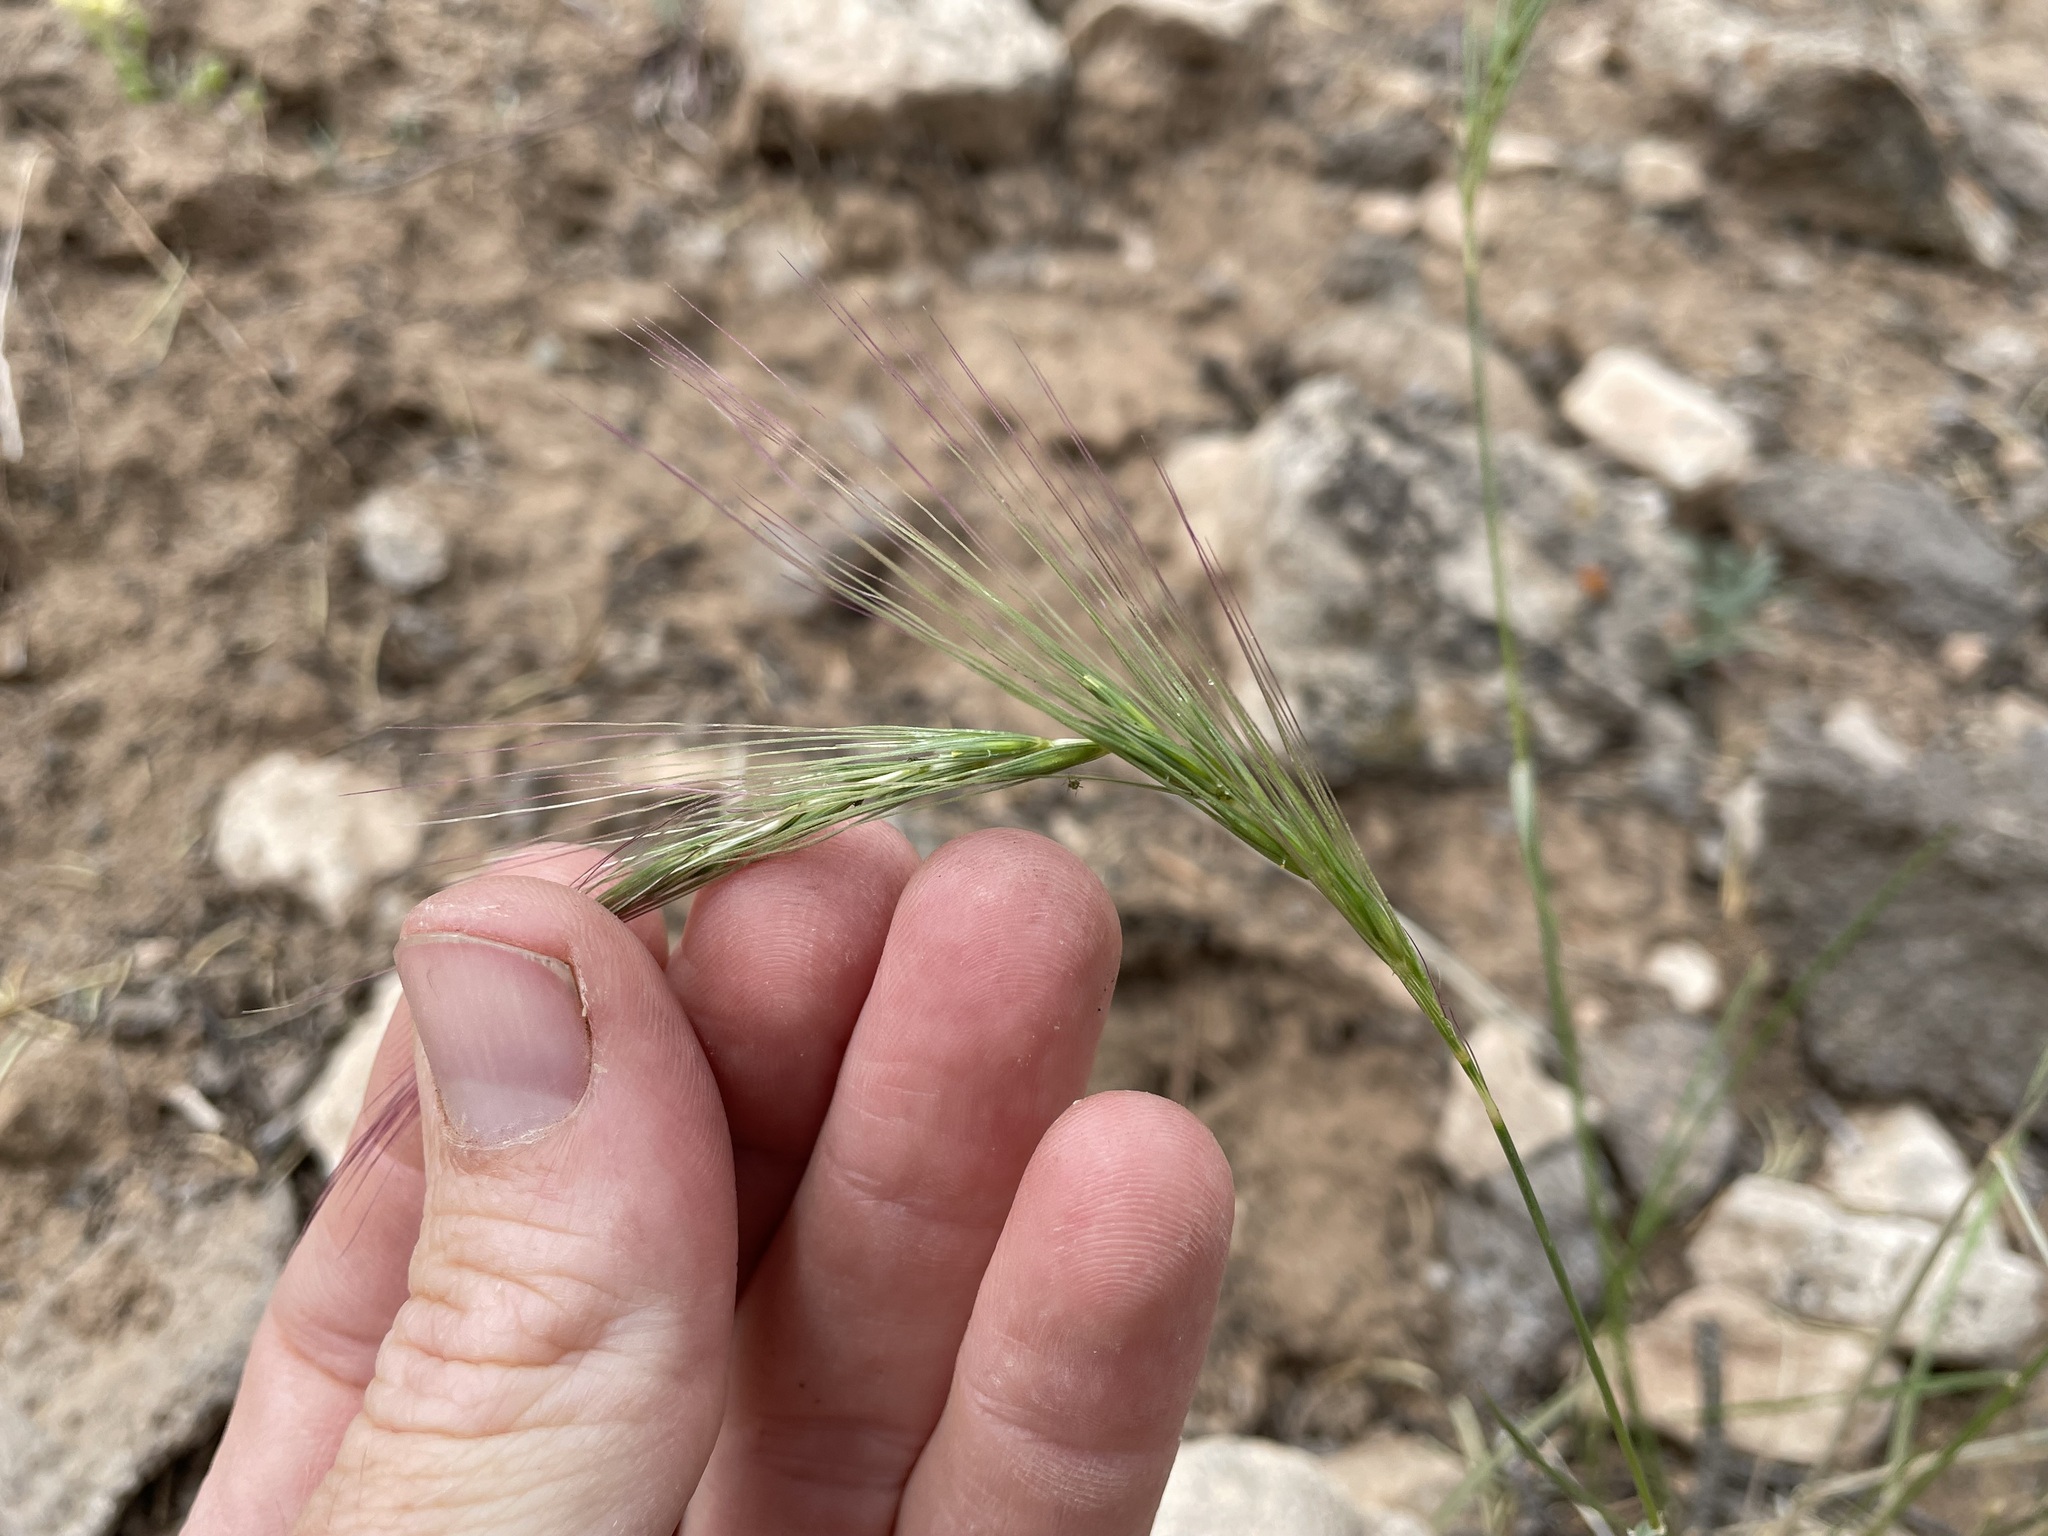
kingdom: Plantae
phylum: Tracheophyta
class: Liliopsida
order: Poales
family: Poaceae
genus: Elymus
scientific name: Elymus longifolius
